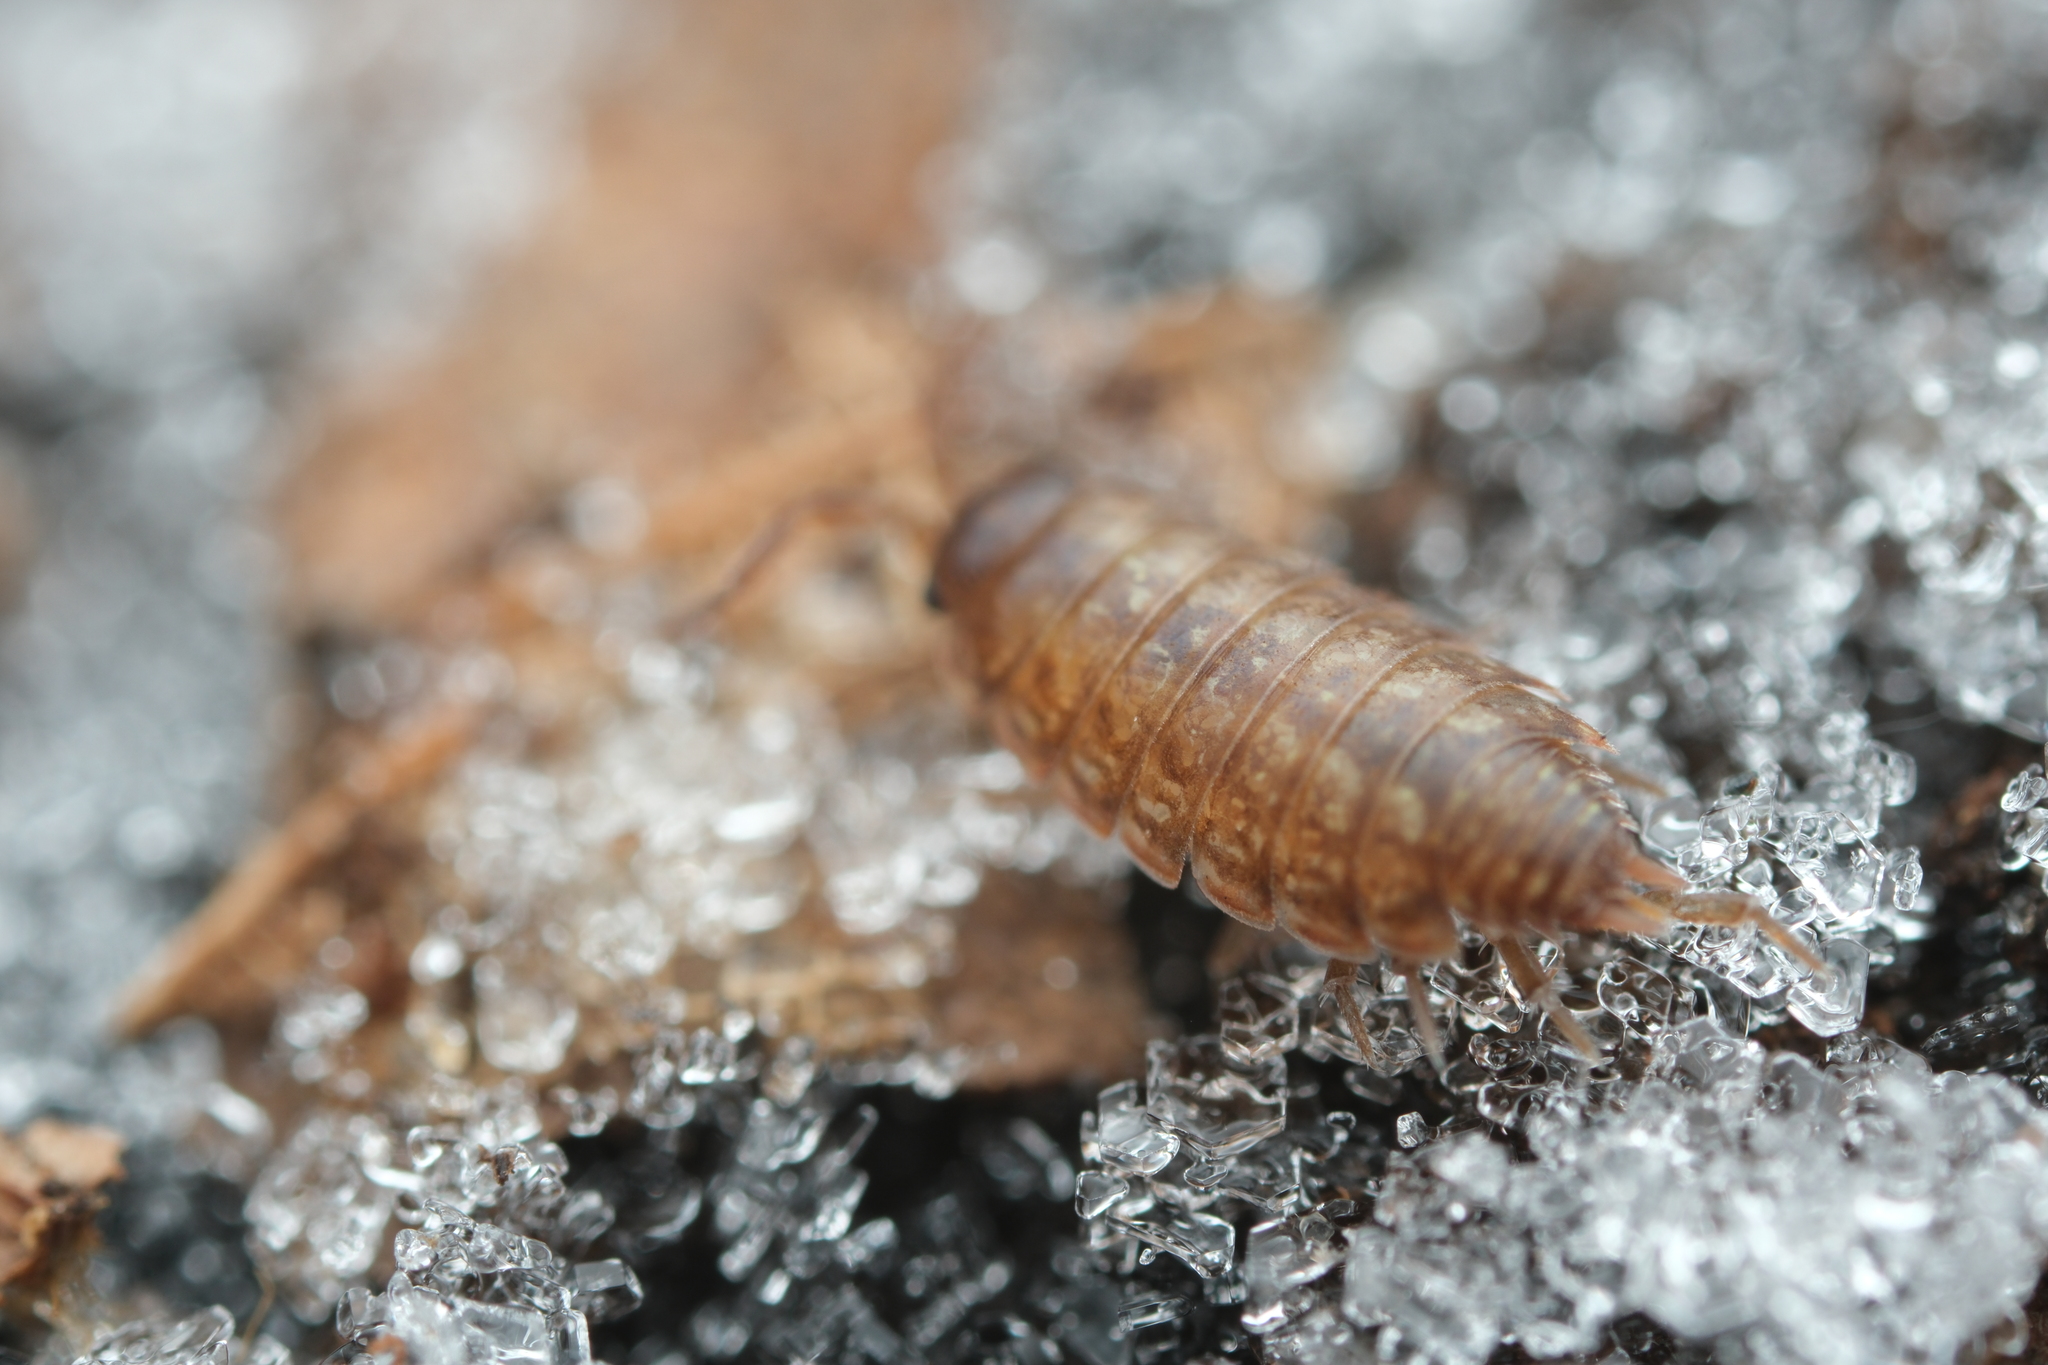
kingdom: Animalia
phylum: Arthropoda
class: Malacostraca
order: Isopoda
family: Philosciidae
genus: Philoscia
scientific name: Philoscia muscorum
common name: Common striped woodlouse
